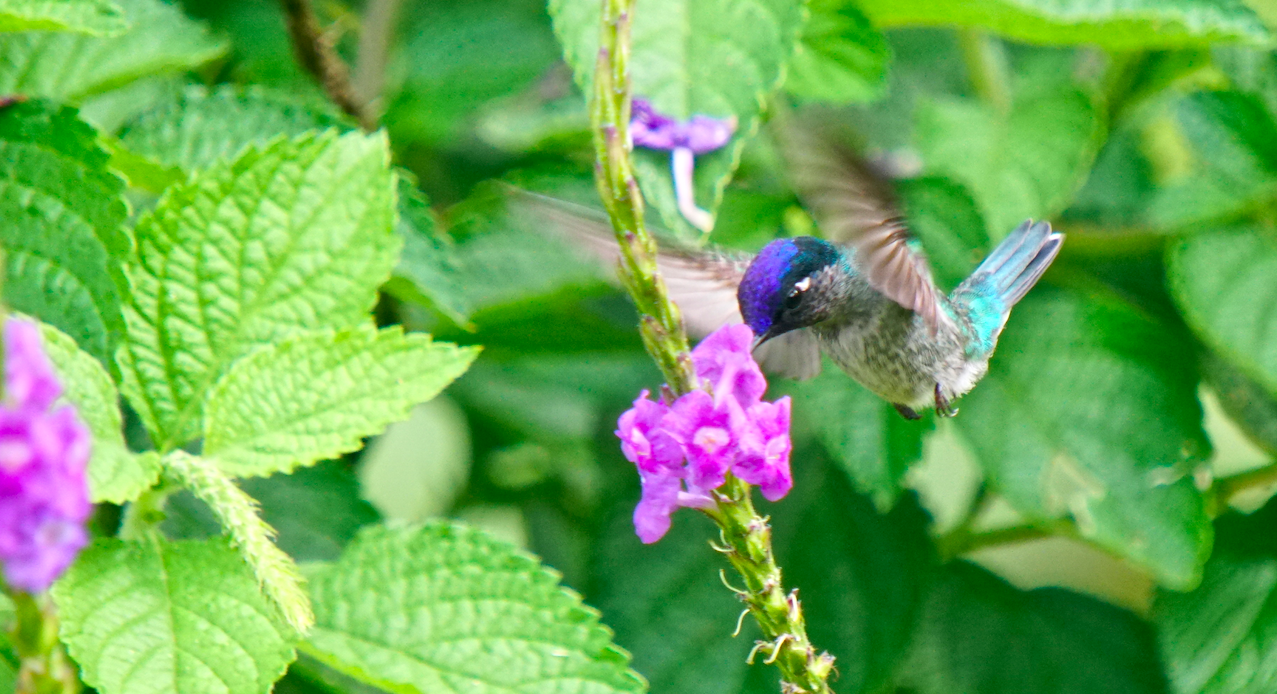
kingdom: Animalia
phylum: Chordata
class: Aves
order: Apodiformes
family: Trochilidae
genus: Klais
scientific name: Klais guimeti
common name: Violet-headed hummingbird
